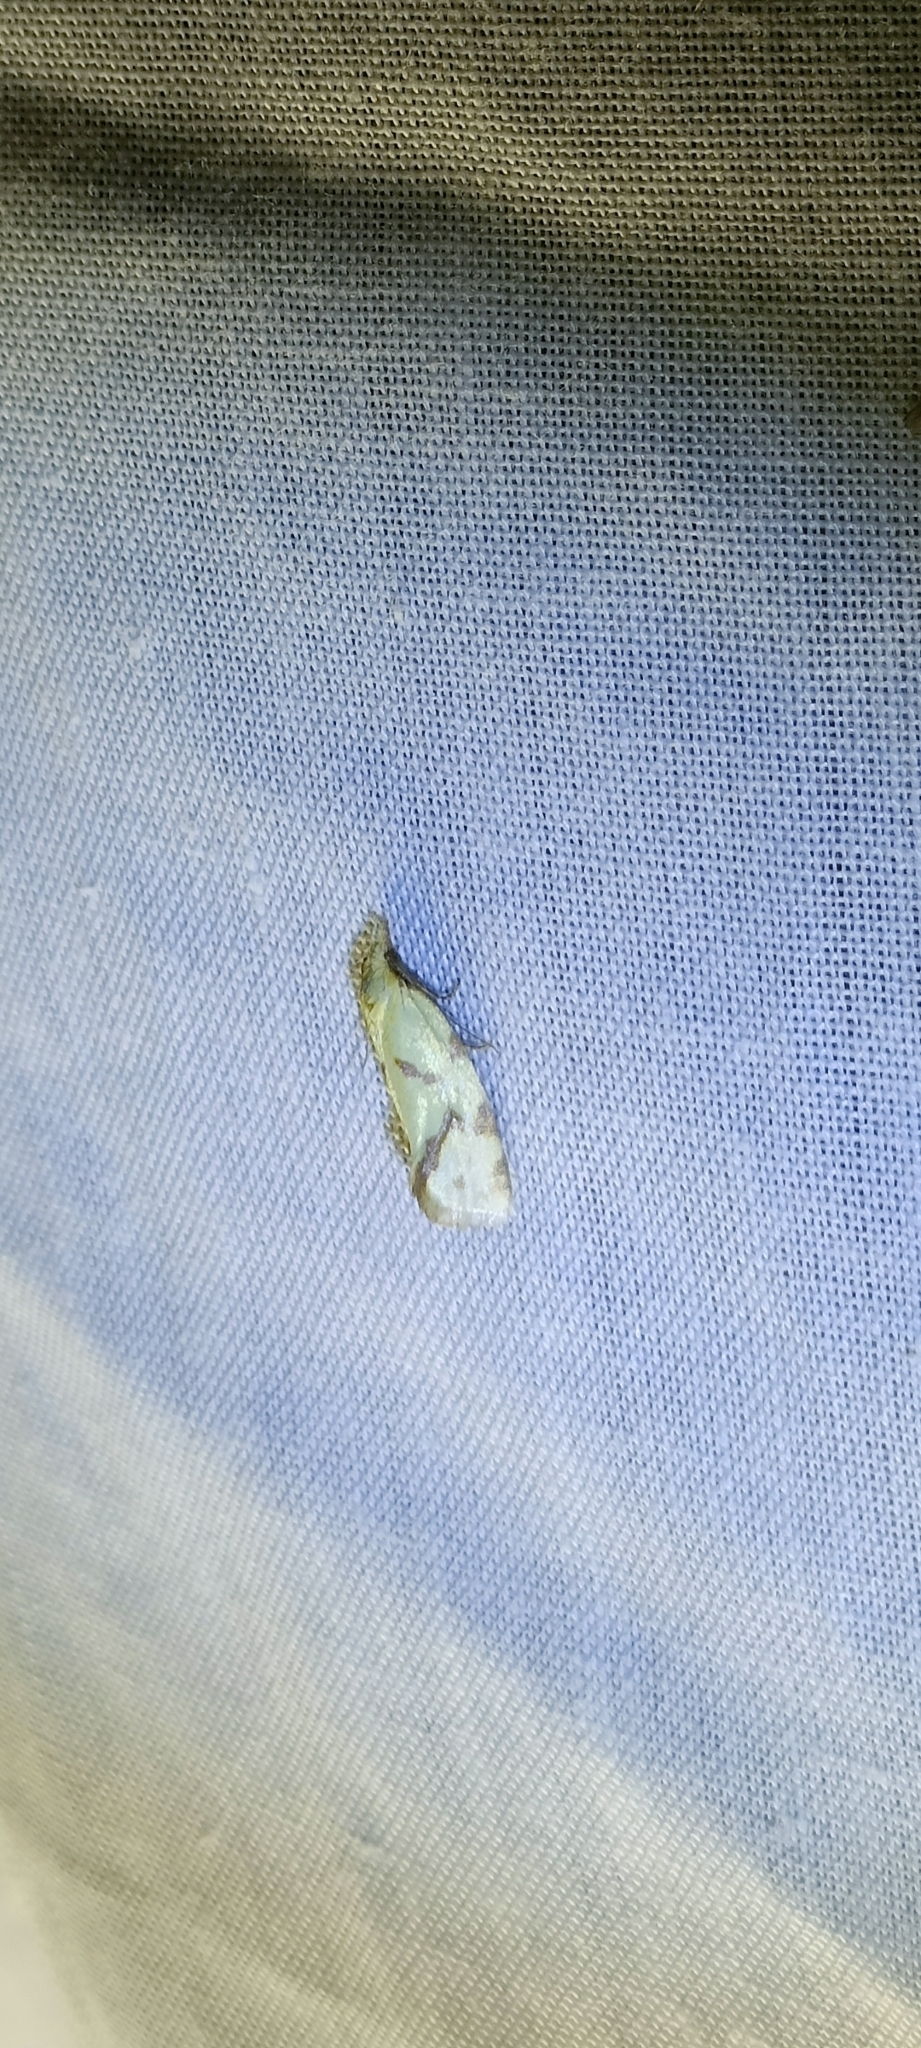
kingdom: Animalia
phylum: Arthropoda
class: Insecta
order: Lepidoptera
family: Tortricidae
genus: Agapeta
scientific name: Agapeta hamana
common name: Common yellow conch
